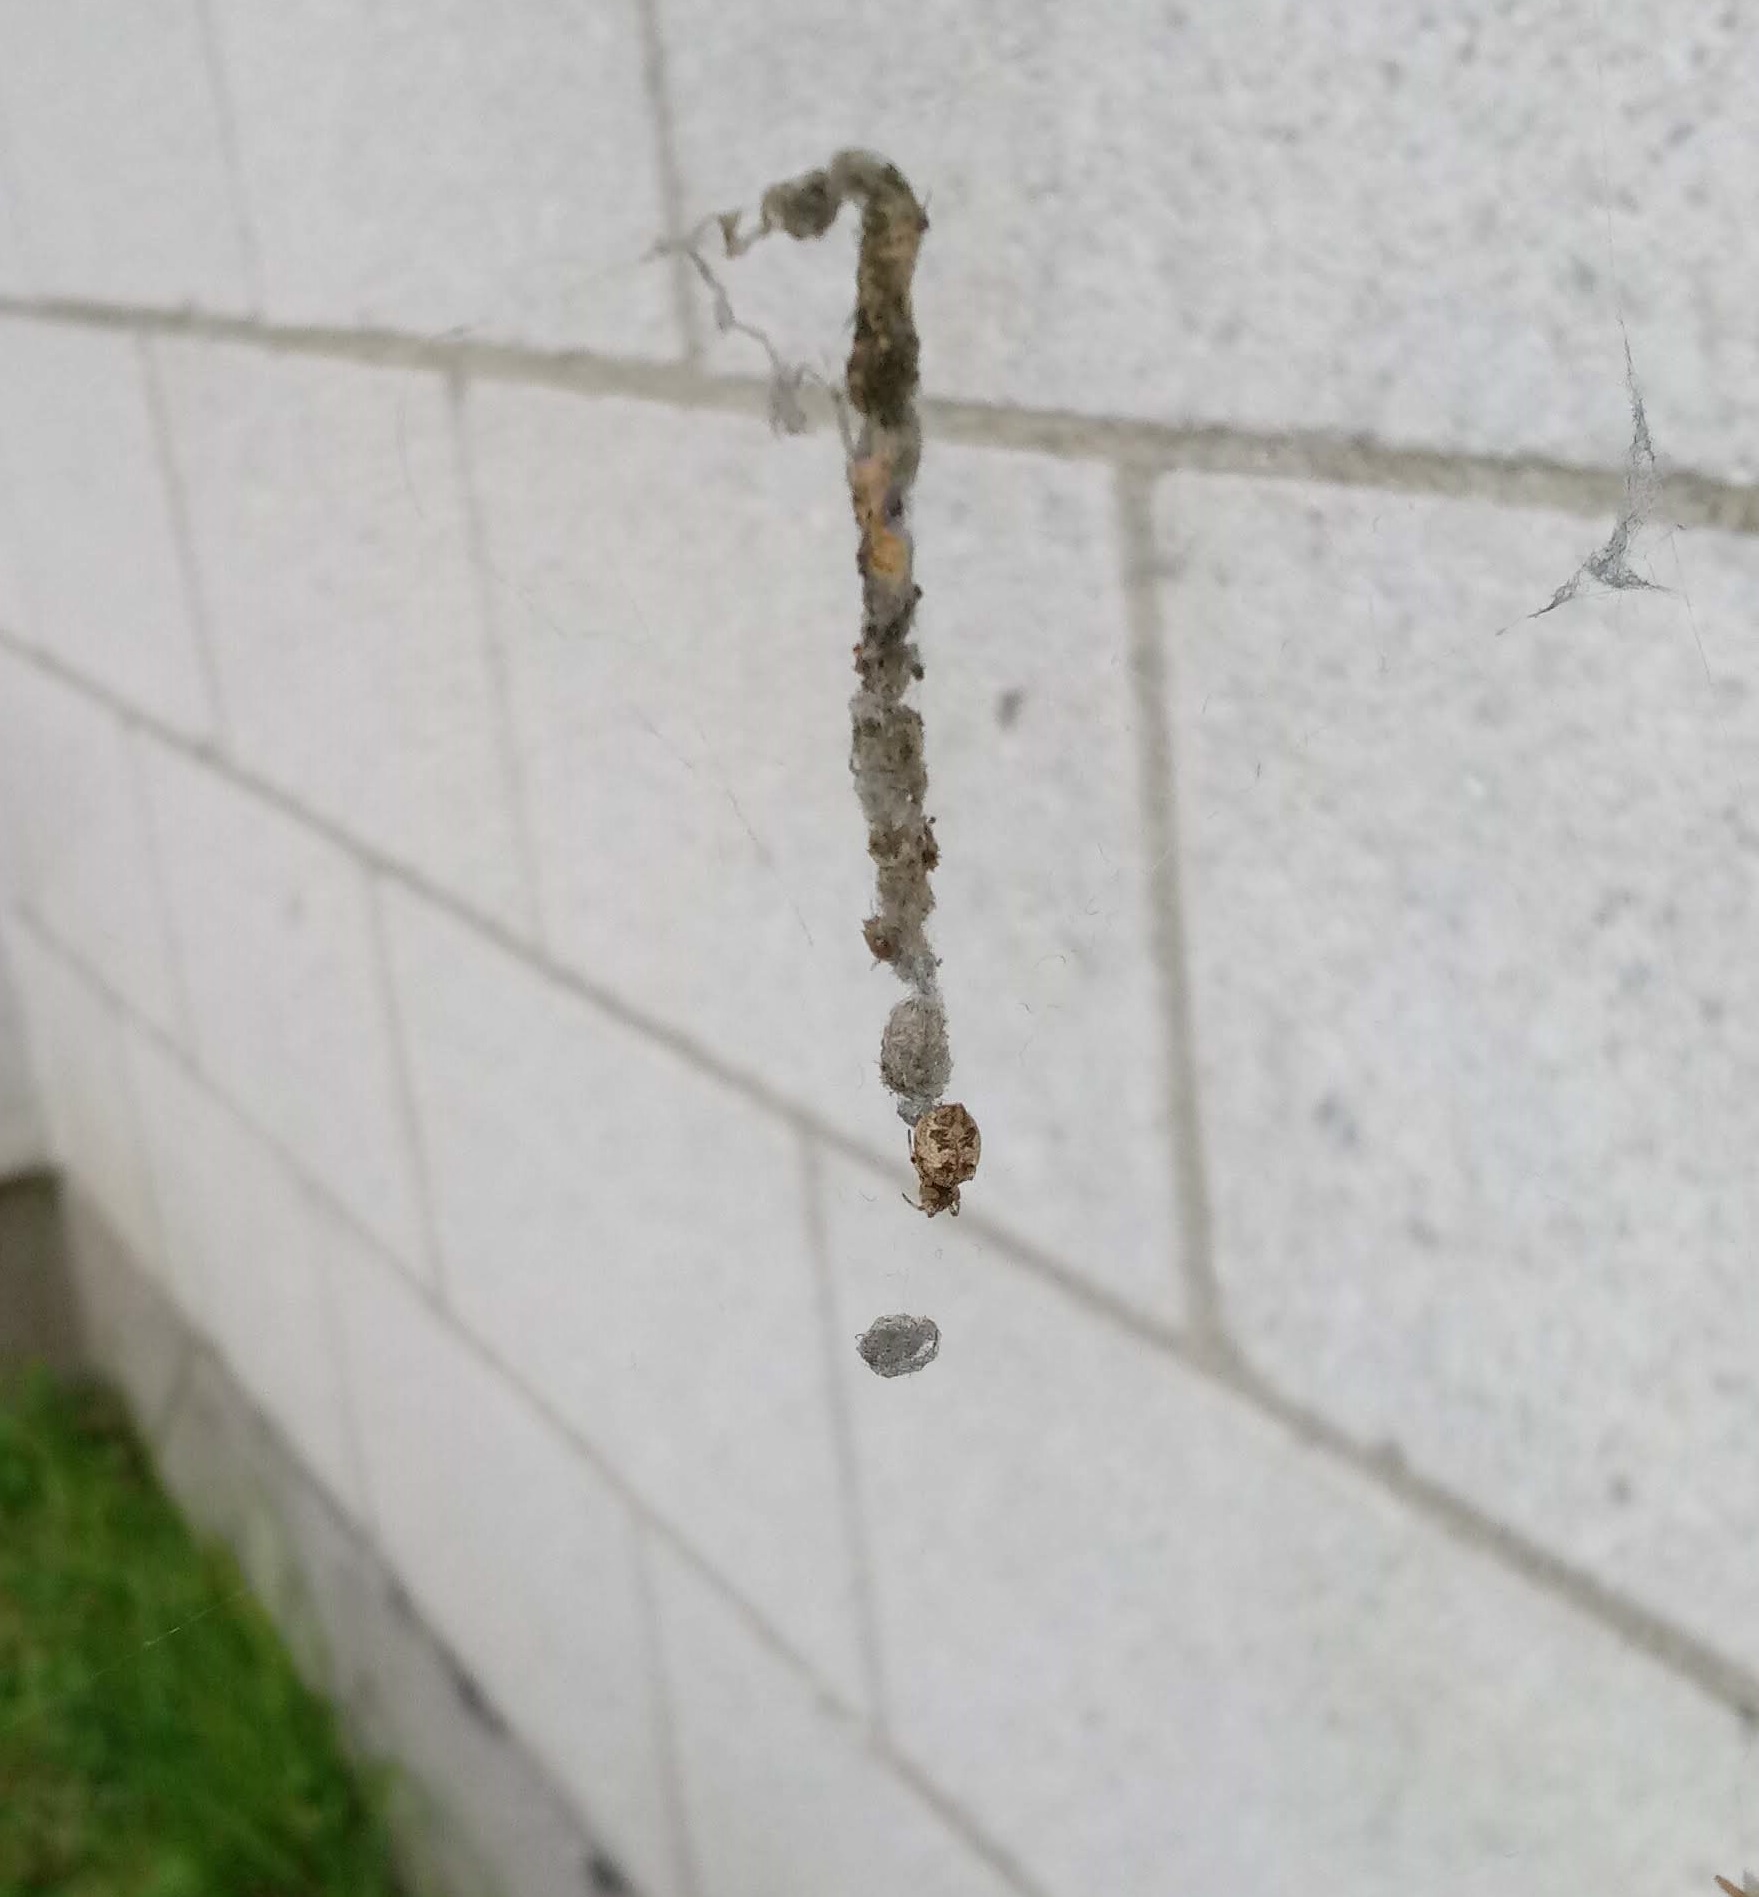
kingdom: Animalia
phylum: Arthropoda
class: Arachnida
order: Araneae
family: Araneidae
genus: Cyclosa
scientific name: Cyclosa turbinata
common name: Orb weavers
